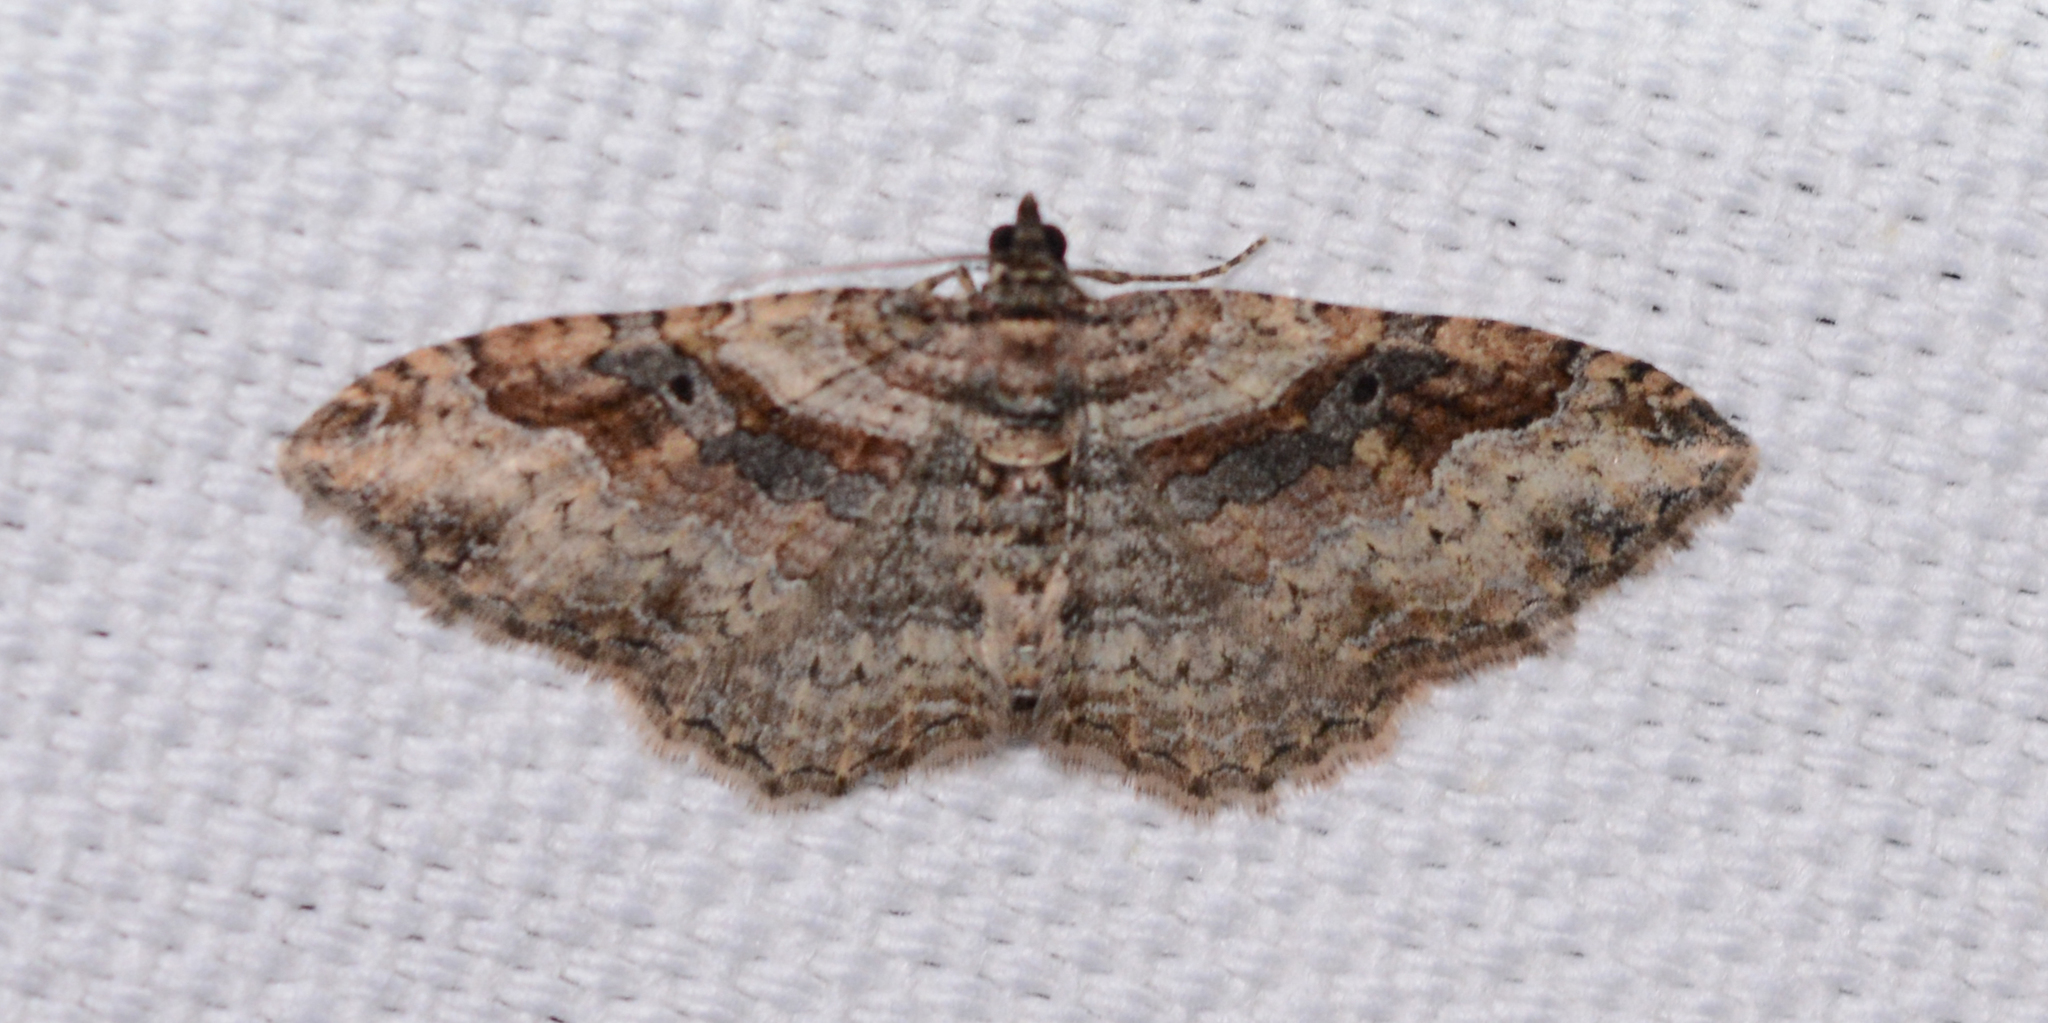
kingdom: Animalia
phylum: Arthropoda
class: Insecta
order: Lepidoptera
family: Geometridae
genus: Costaconvexa
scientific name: Costaconvexa centrostrigaria
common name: Bent-line carpet
